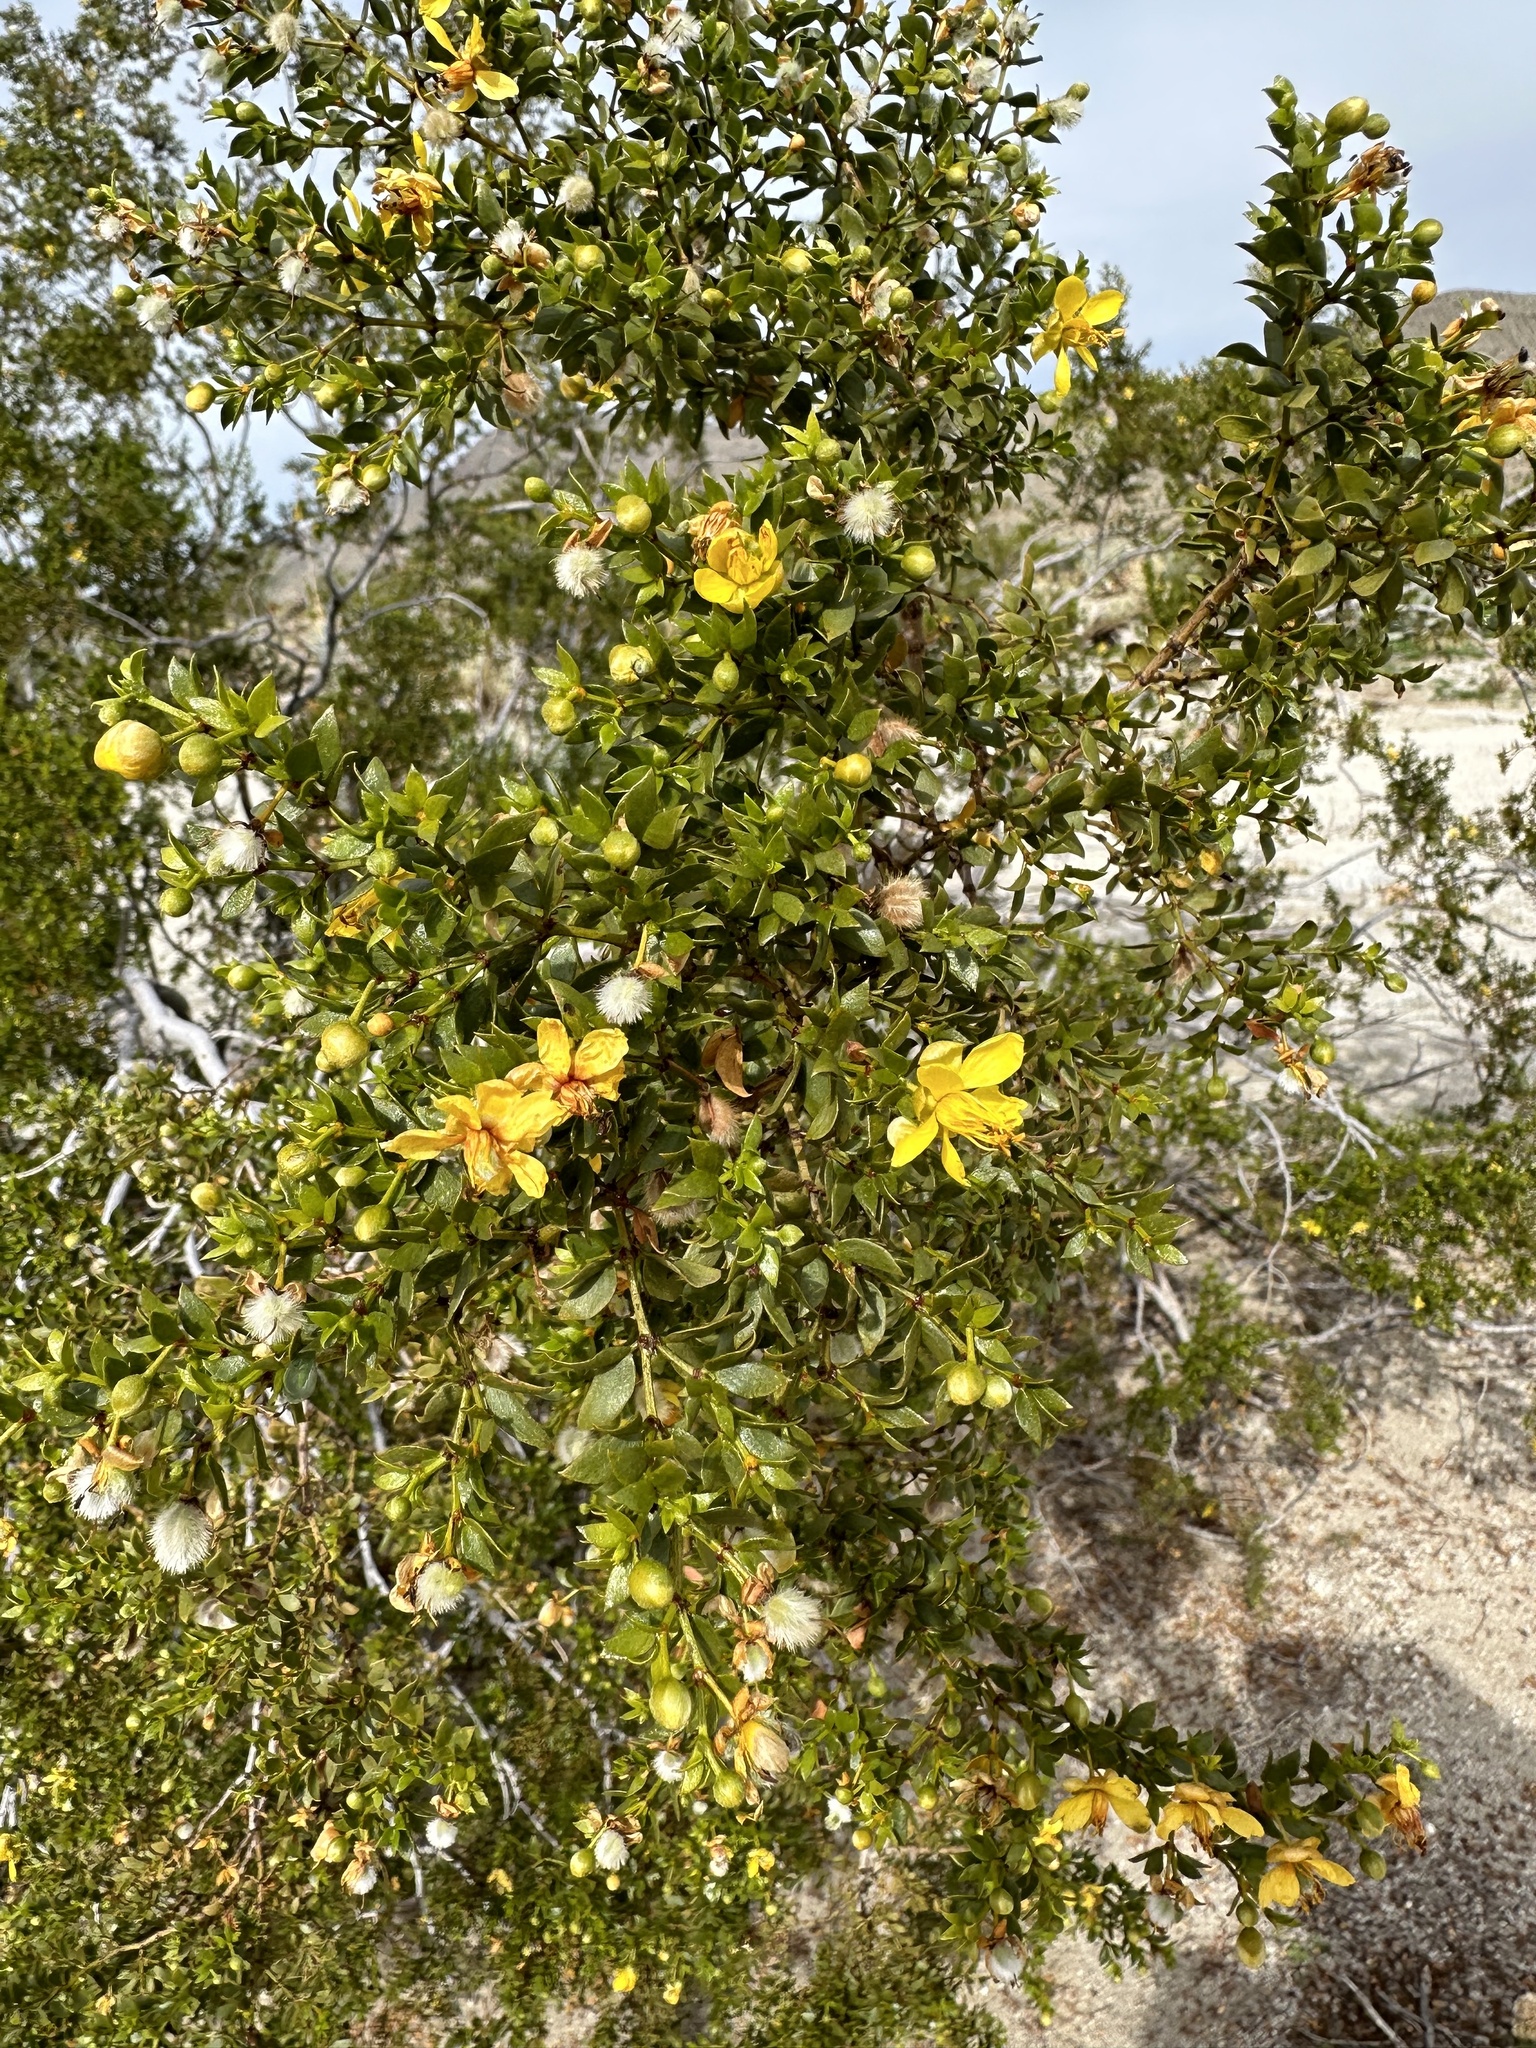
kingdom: Plantae
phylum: Tracheophyta
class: Magnoliopsida
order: Zygophyllales
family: Zygophyllaceae
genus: Larrea
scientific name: Larrea tridentata
